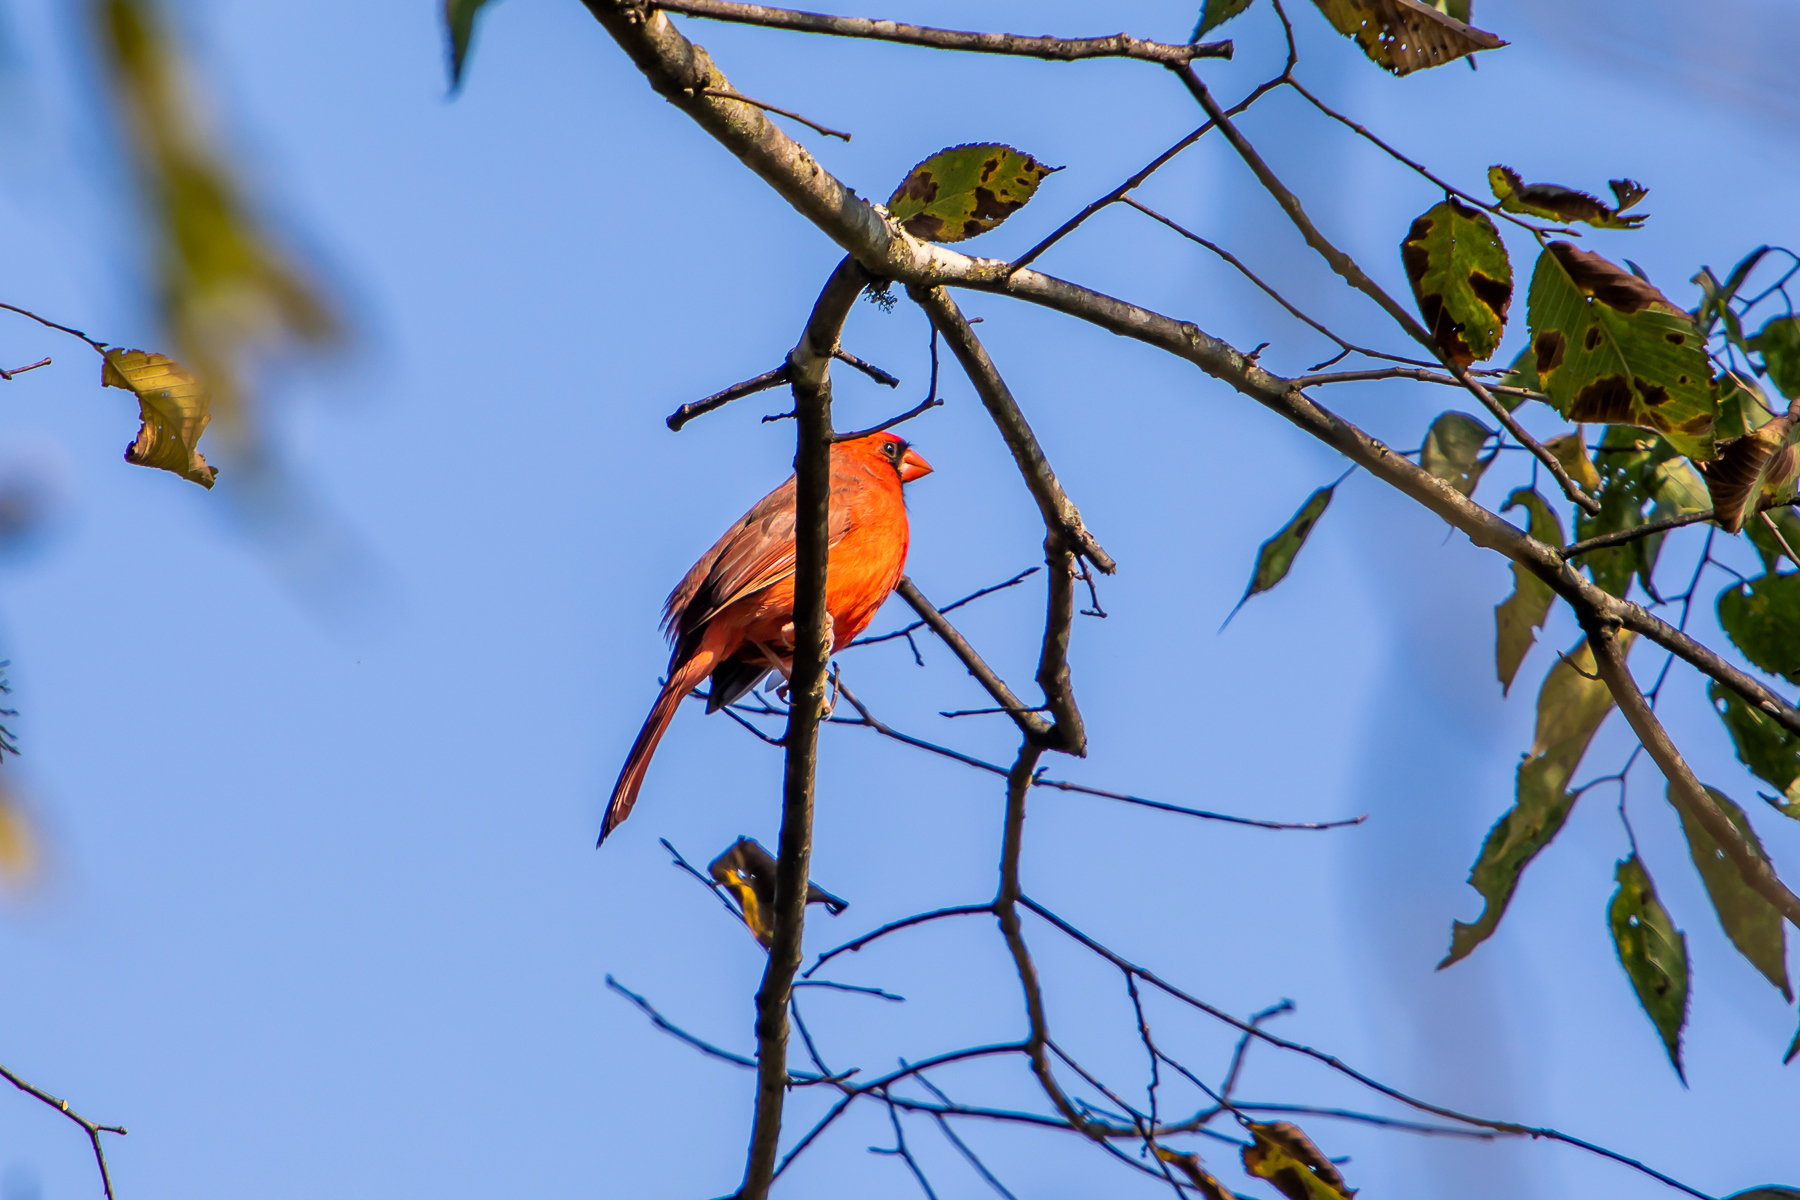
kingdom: Animalia
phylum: Chordata
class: Aves
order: Passeriformes
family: Cardinalidae
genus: Cardinalis
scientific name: Cardinalis cardinalis
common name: Northern cardinal
